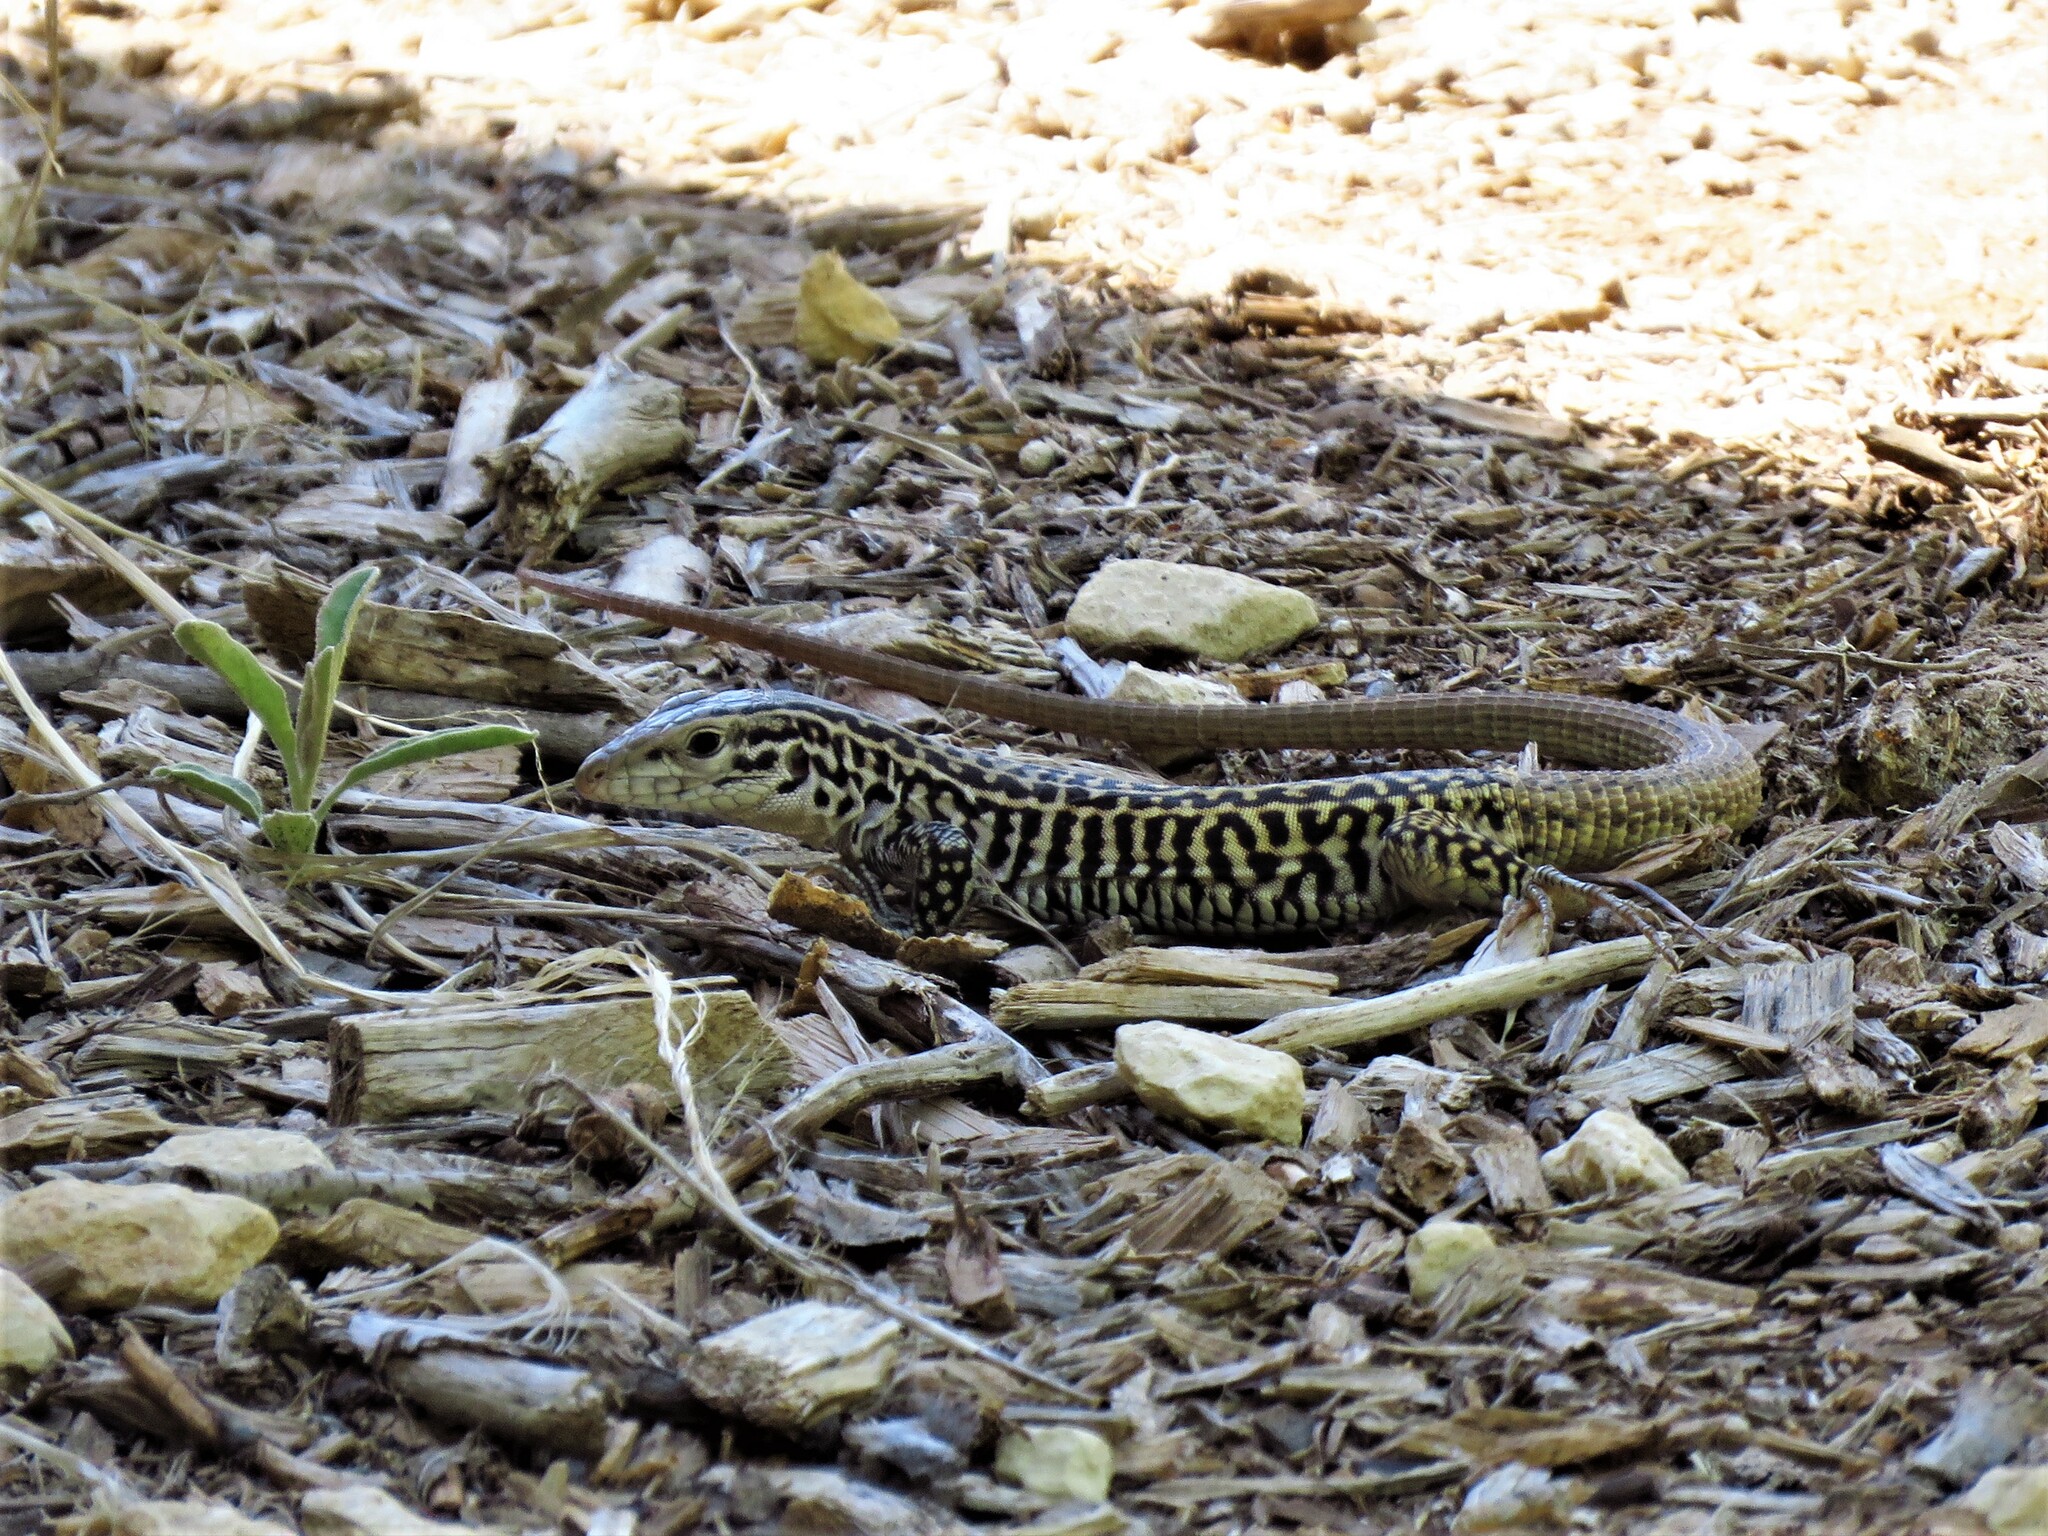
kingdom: Animalia
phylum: Chordata
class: Squamata
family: Teiidae
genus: Aspidoscelis
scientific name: Aspidoscelis tesselatus
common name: Common checkered whiptail [tesselata]
